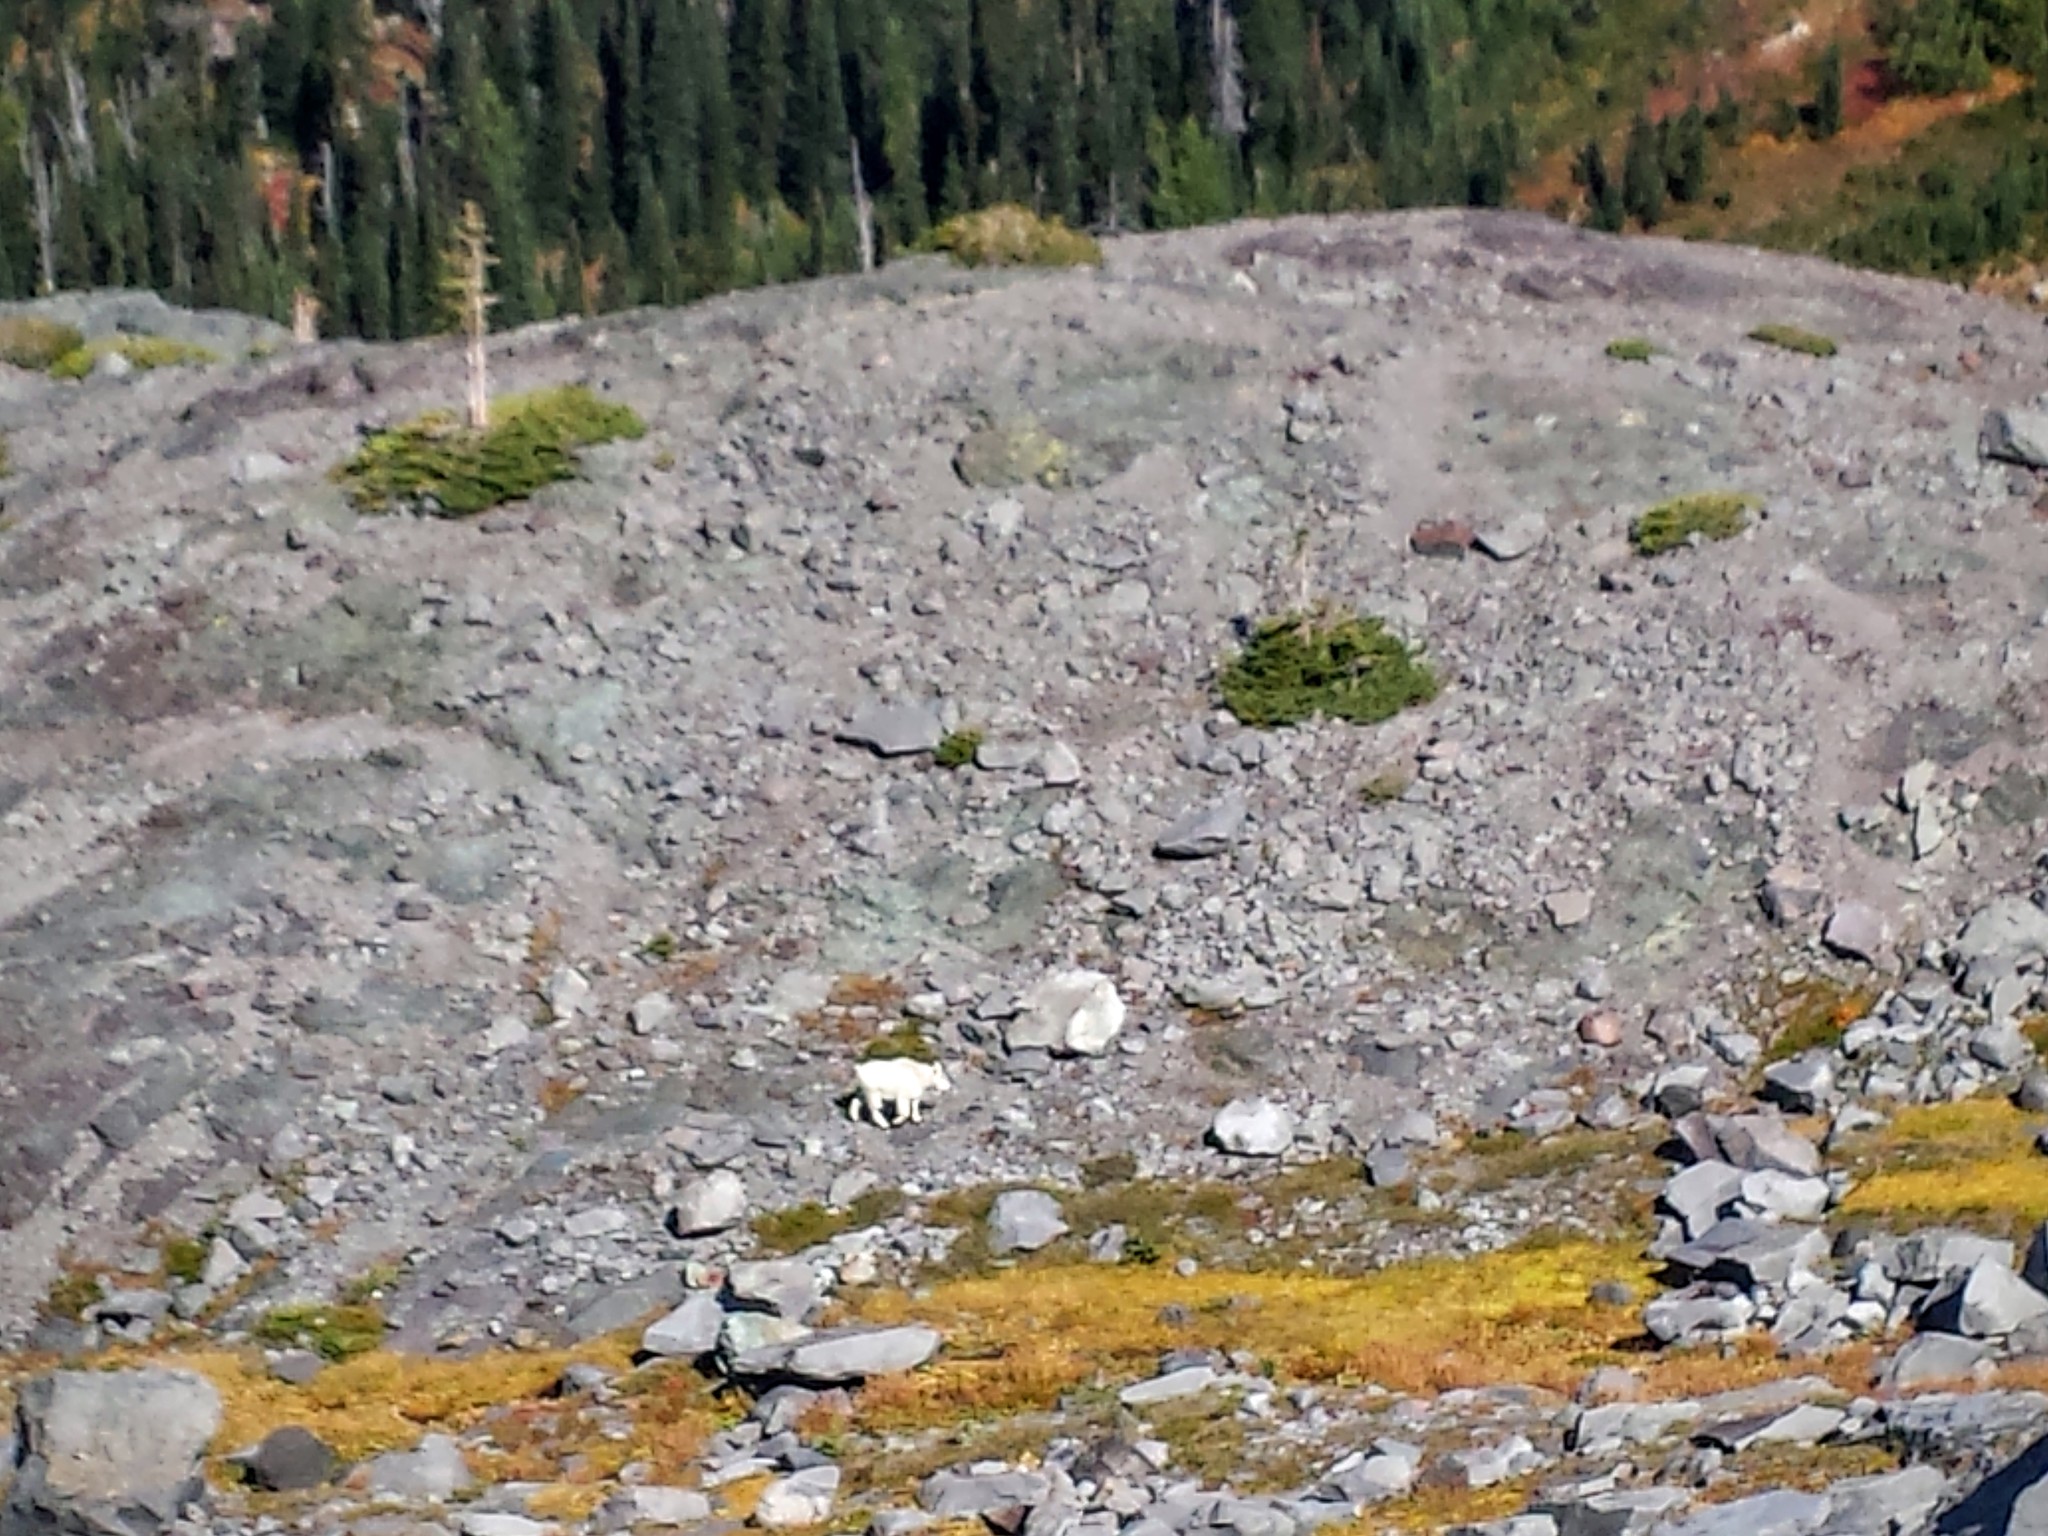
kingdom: Animalia
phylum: Chordata
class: Mammalia
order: Artiodactyla
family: Bovidae
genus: Oreamnos
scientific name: Oreamnos americanus
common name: Mountain goat
